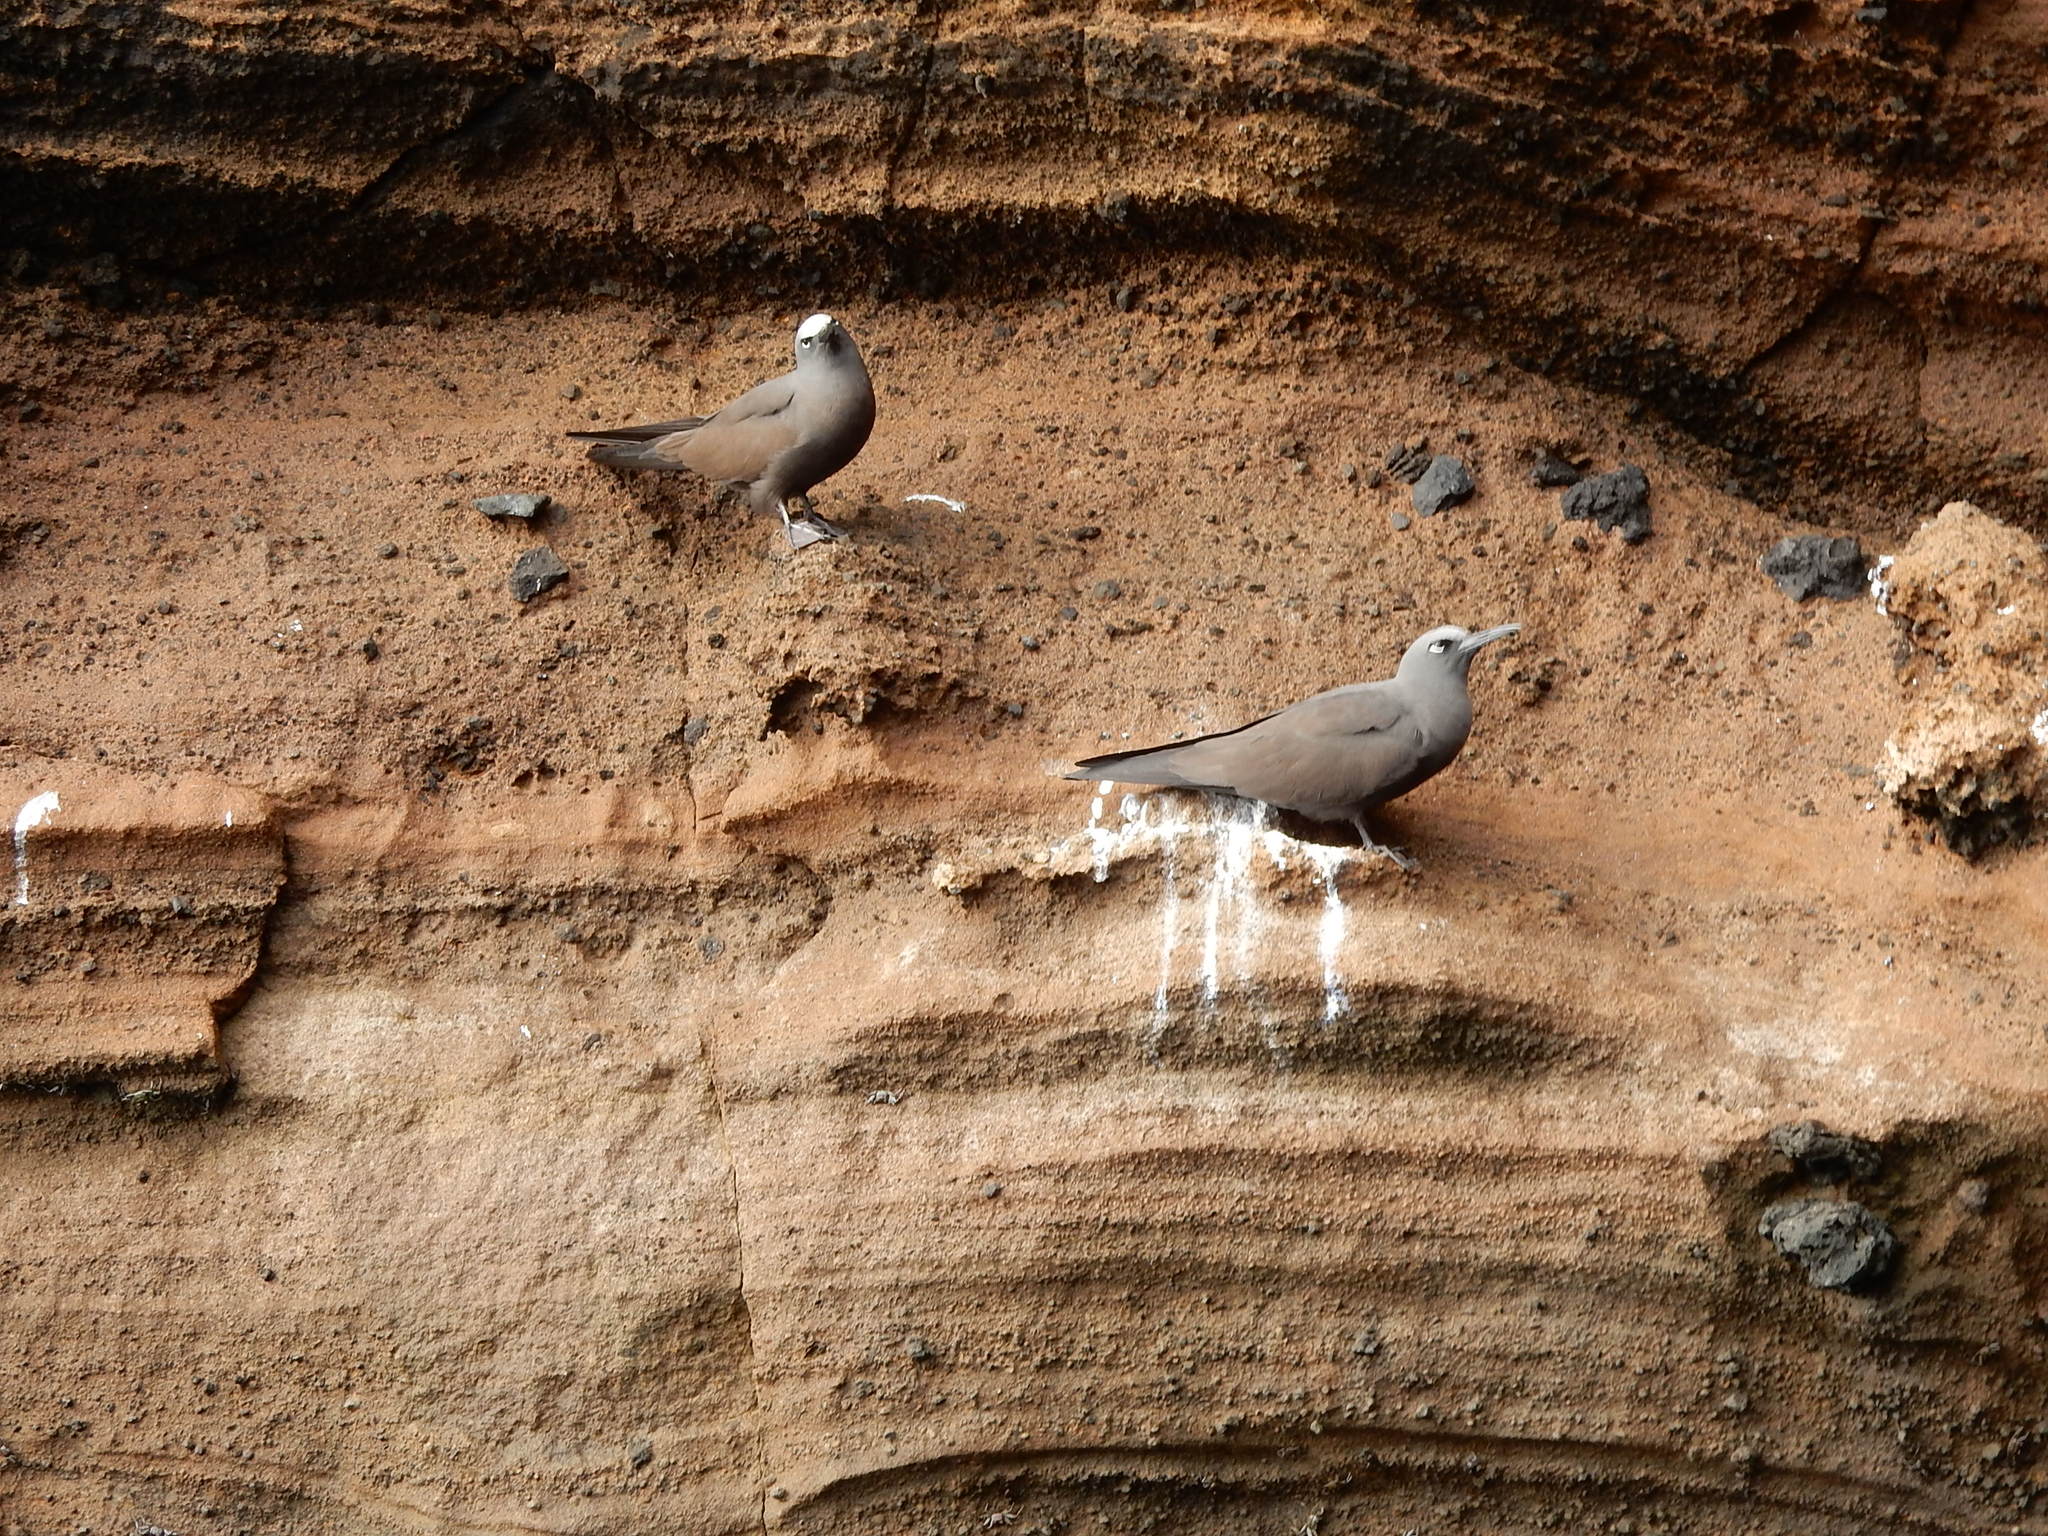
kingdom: Animalia
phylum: Chordata
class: Aves
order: Charadriiformes
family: Laridae
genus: Anous
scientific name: Anous stolidus
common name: Brown noddy
